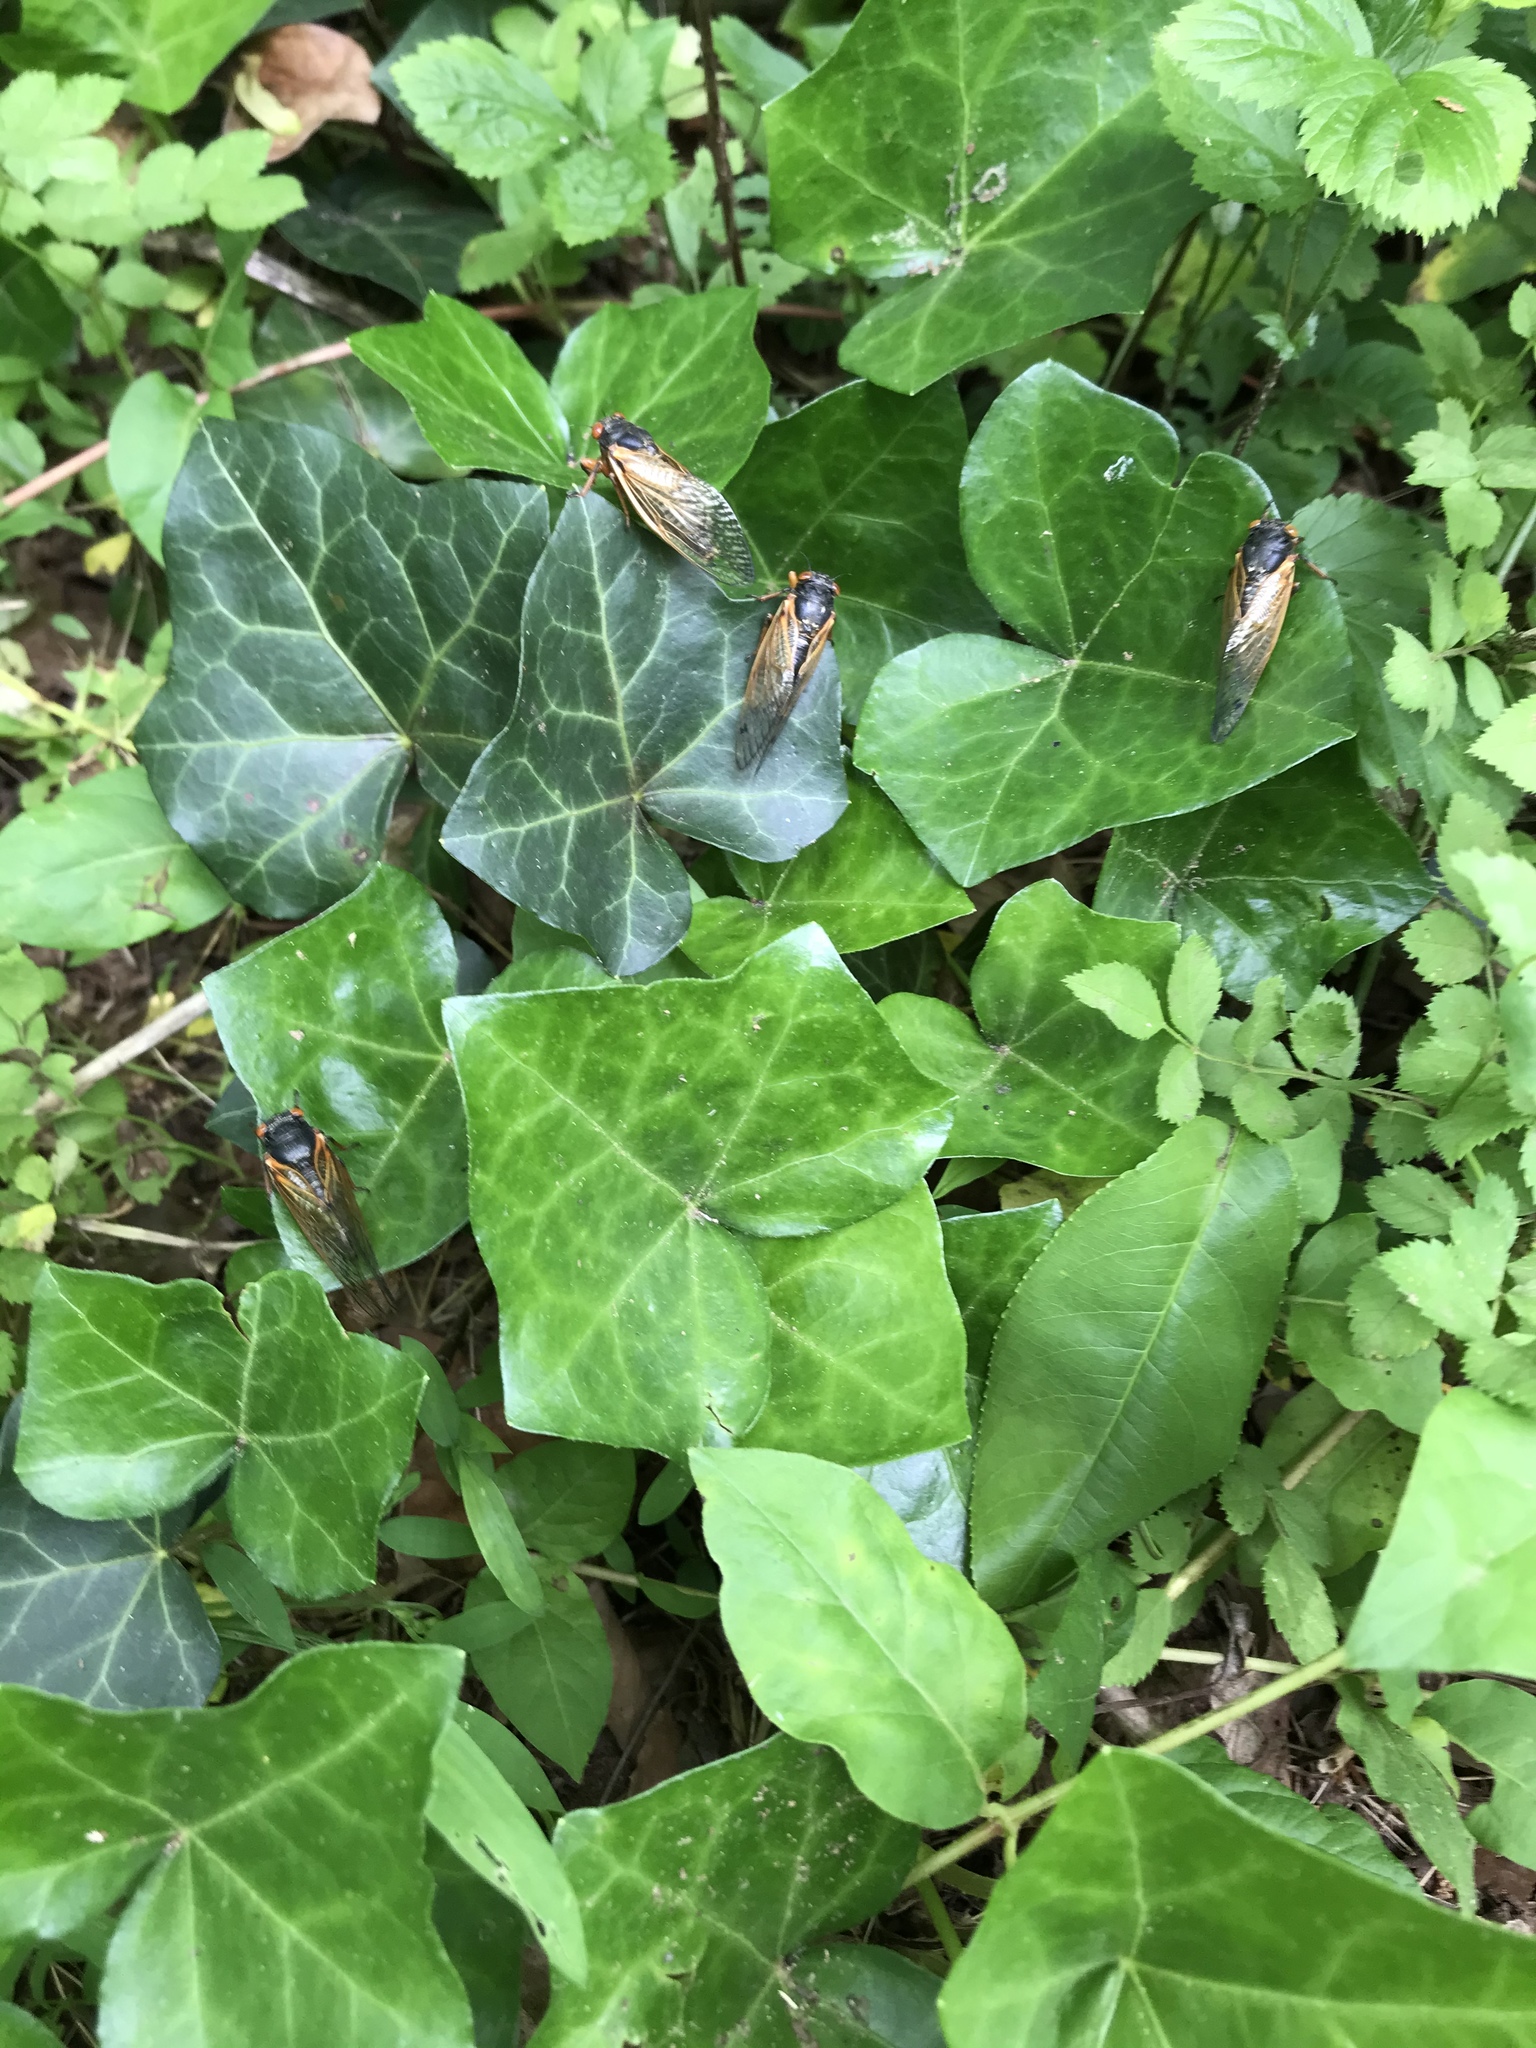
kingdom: Animalia
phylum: Arthropoda
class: Insecta
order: Hemiptera
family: Cicadidae
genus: Magicicada
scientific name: Magicicada
